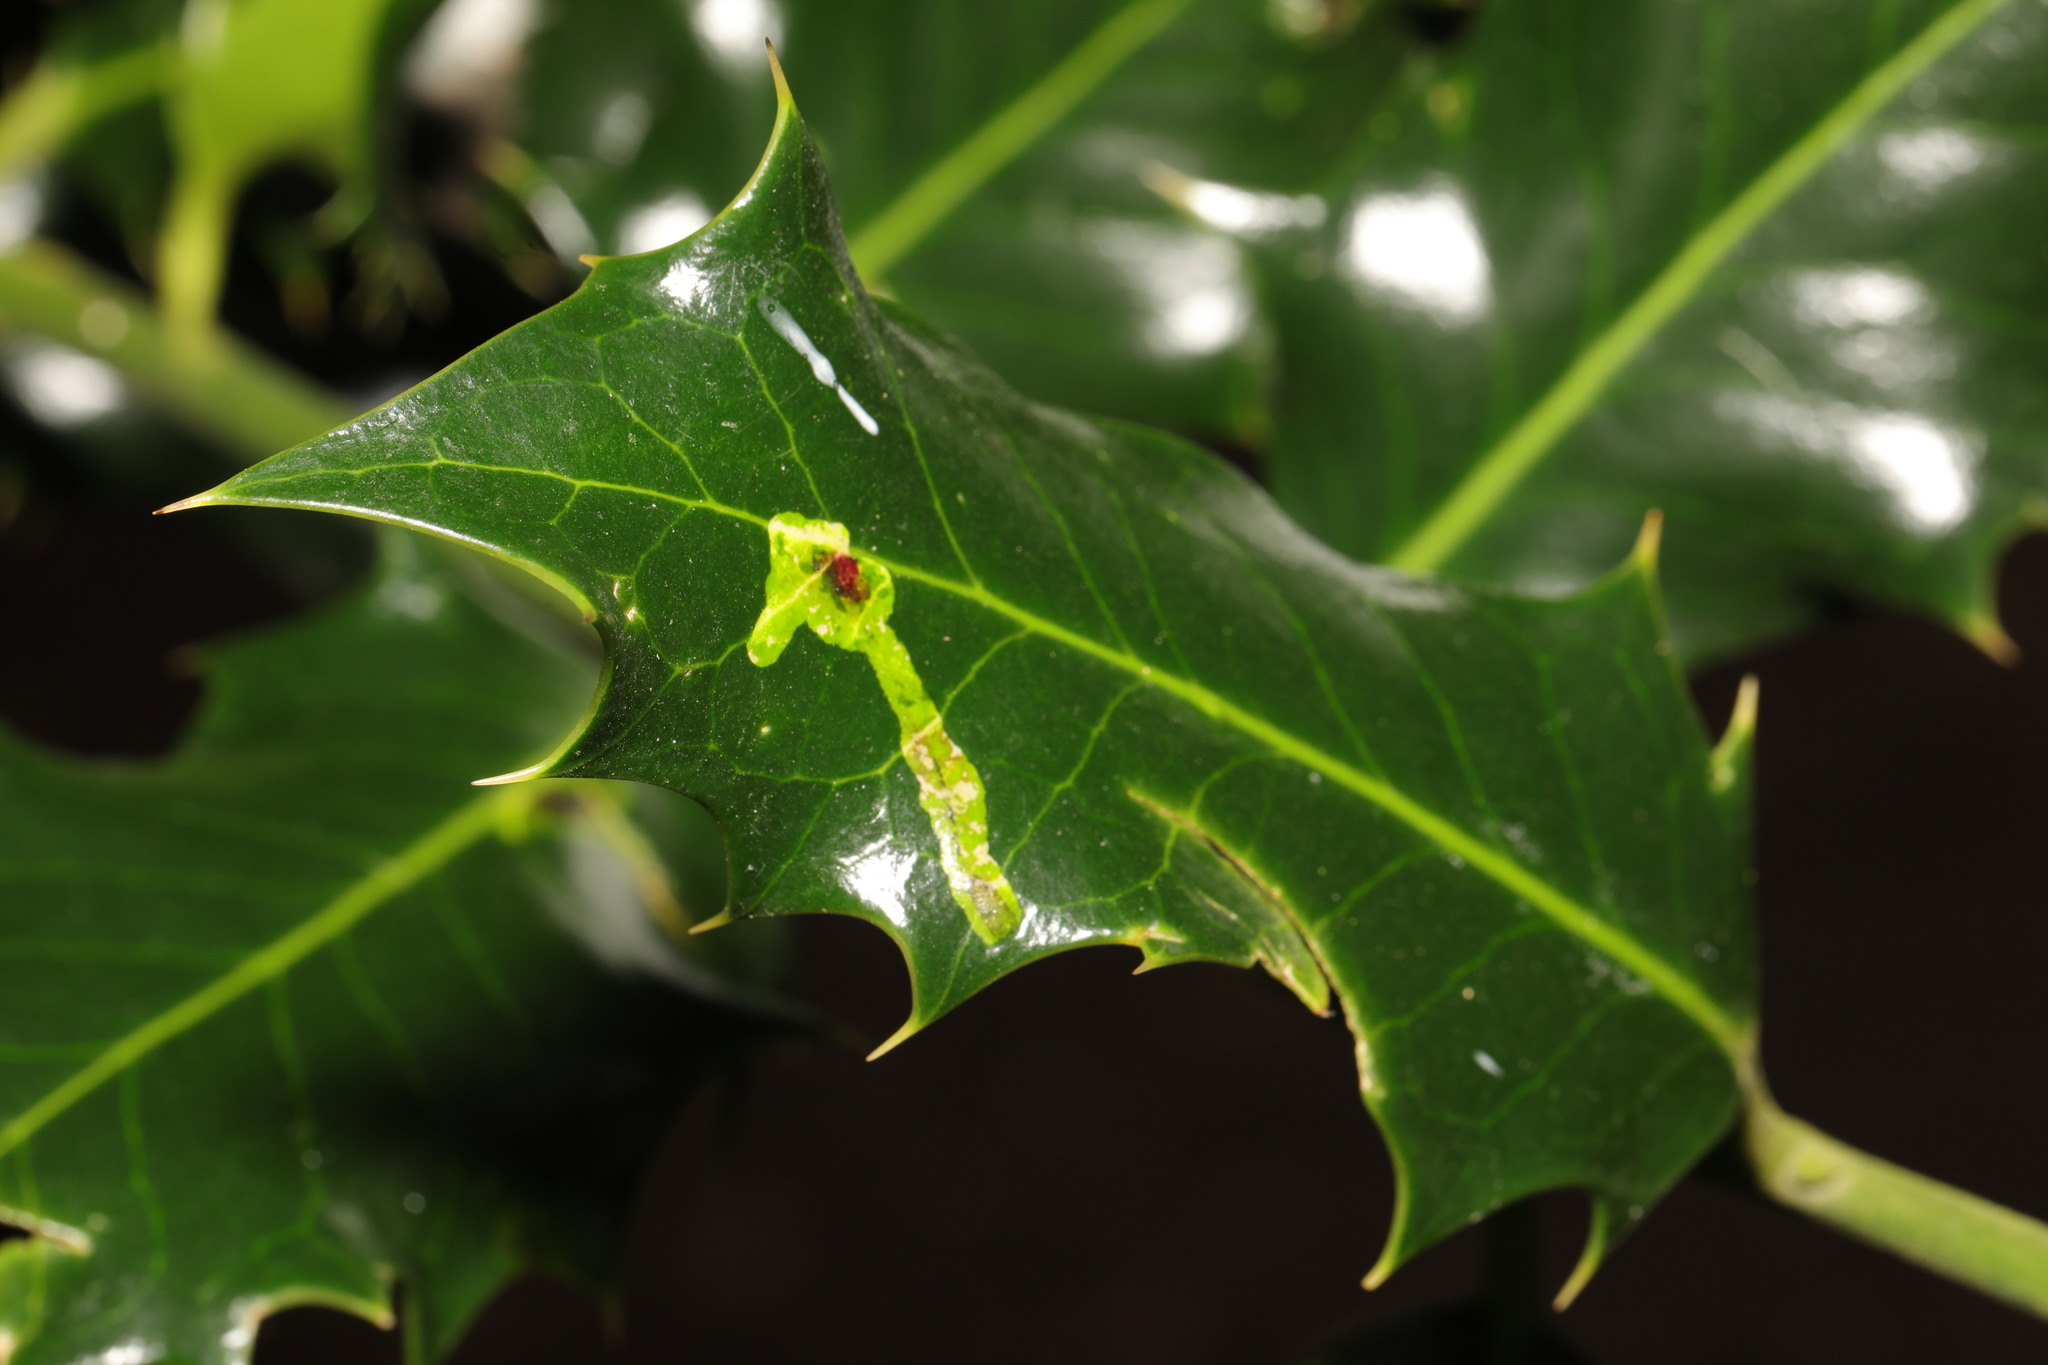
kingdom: Animalia
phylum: Arthropoda
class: Insecta
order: Diptera
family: Agromyzidae
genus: Phytomyza
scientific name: Phytomyza ilicis
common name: Holly leafminer
